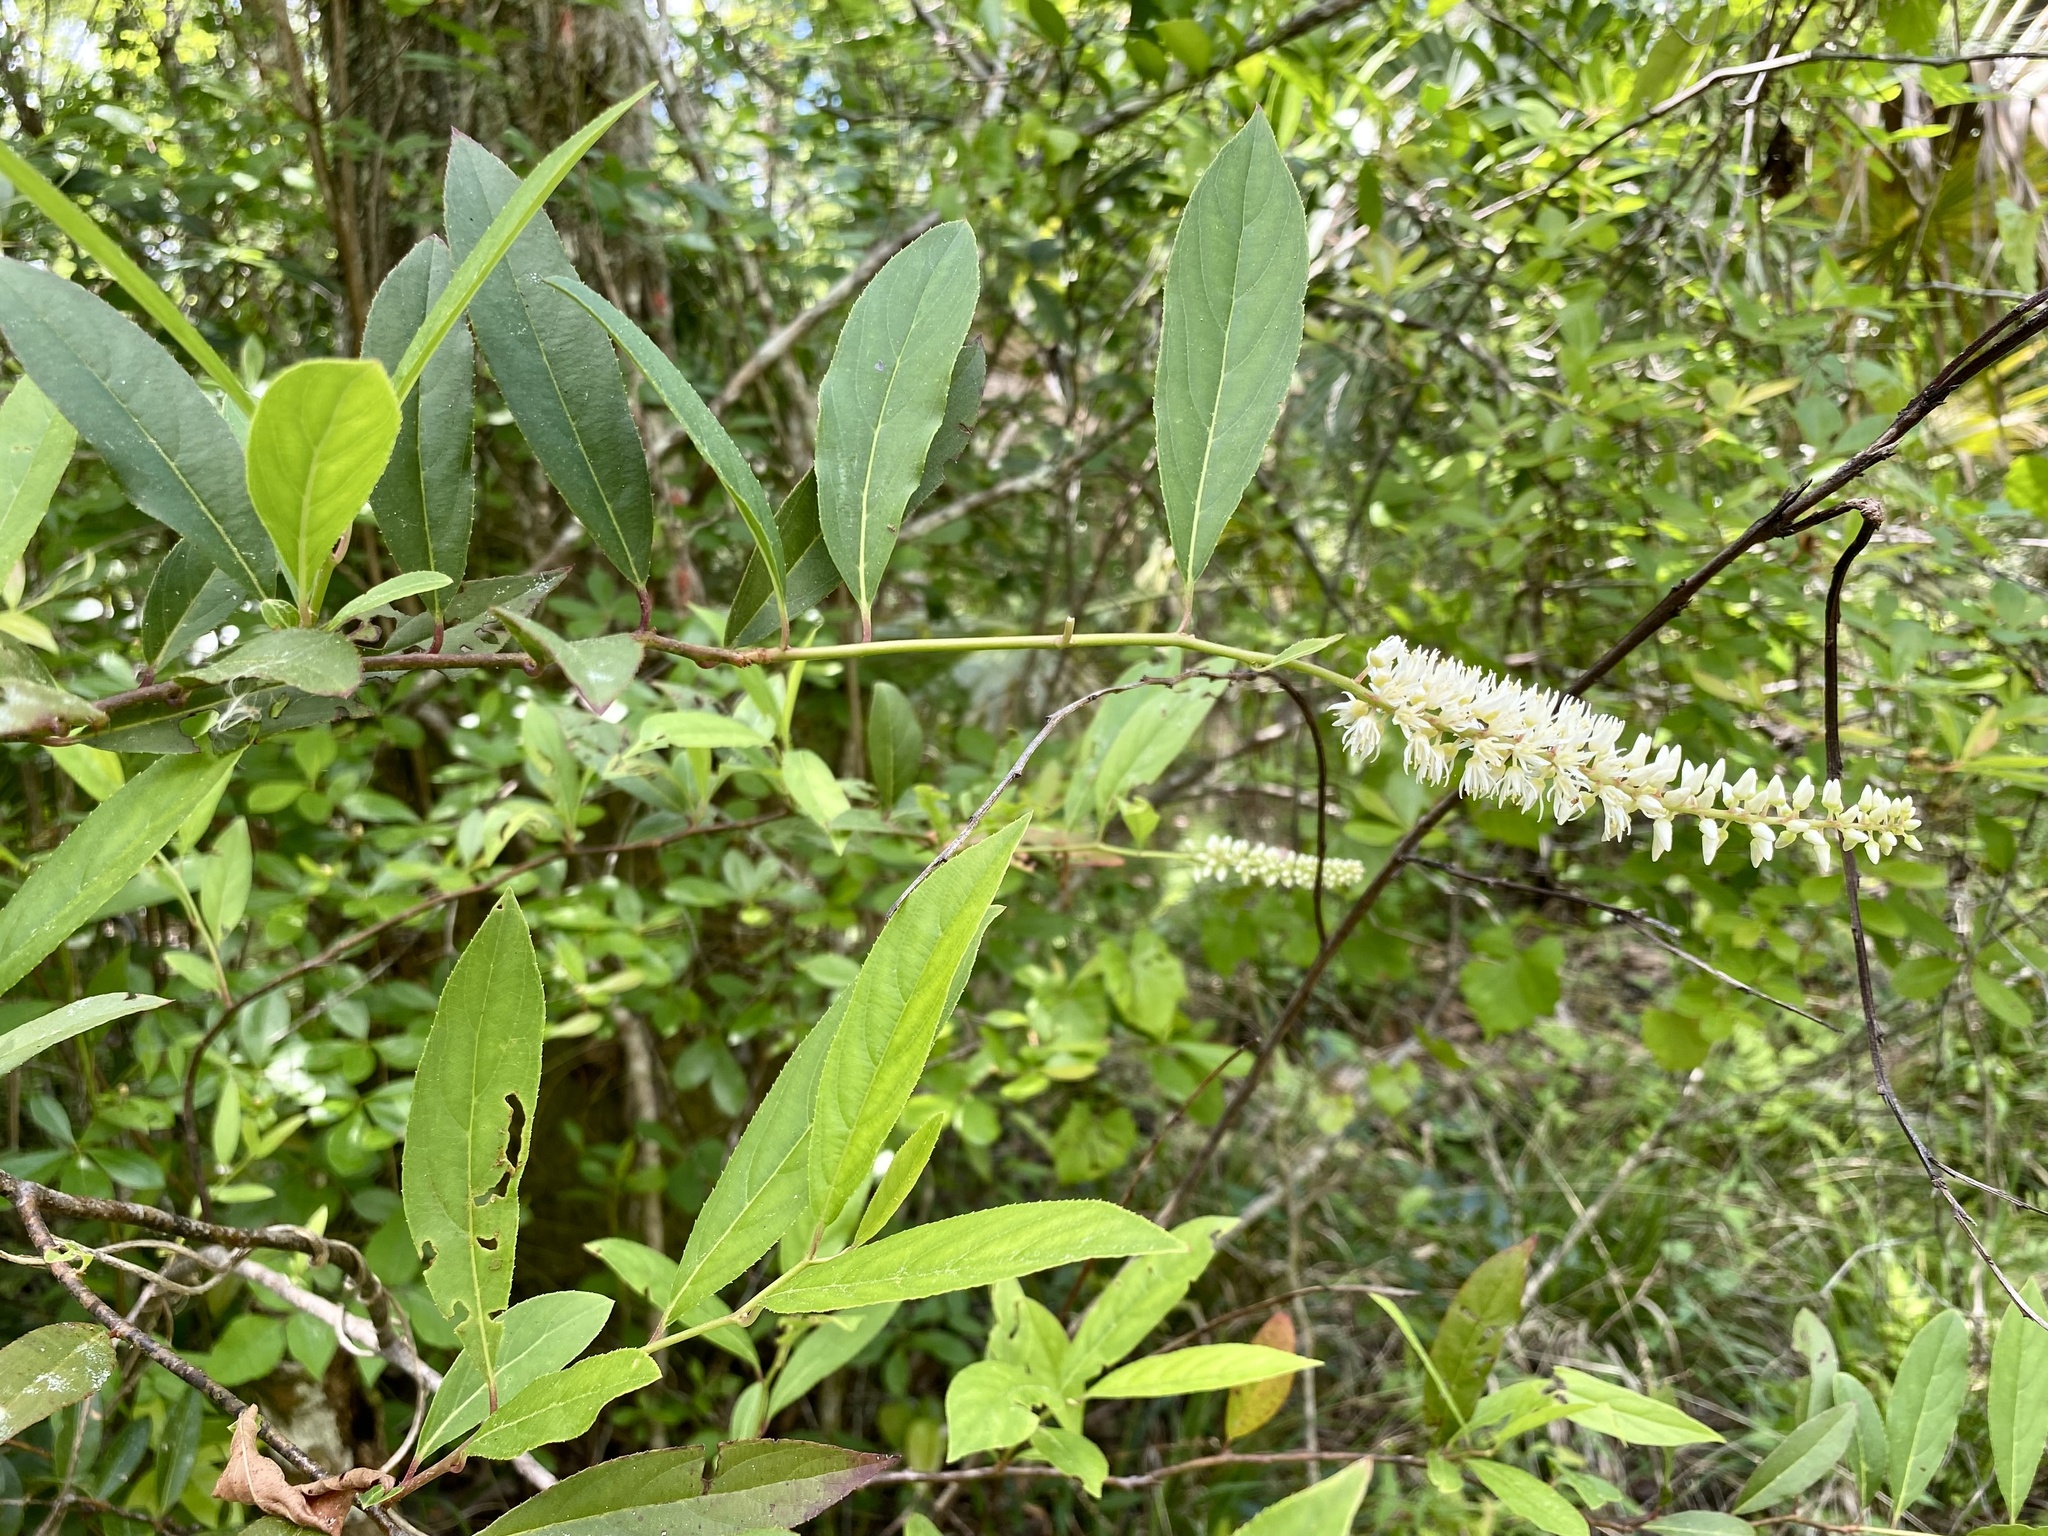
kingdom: Plantae
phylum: Tracheophyta
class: Magnoliopsida
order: Saxifragales
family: Iteaceae
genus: Itea
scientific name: Itea virginica
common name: Sweetspire
